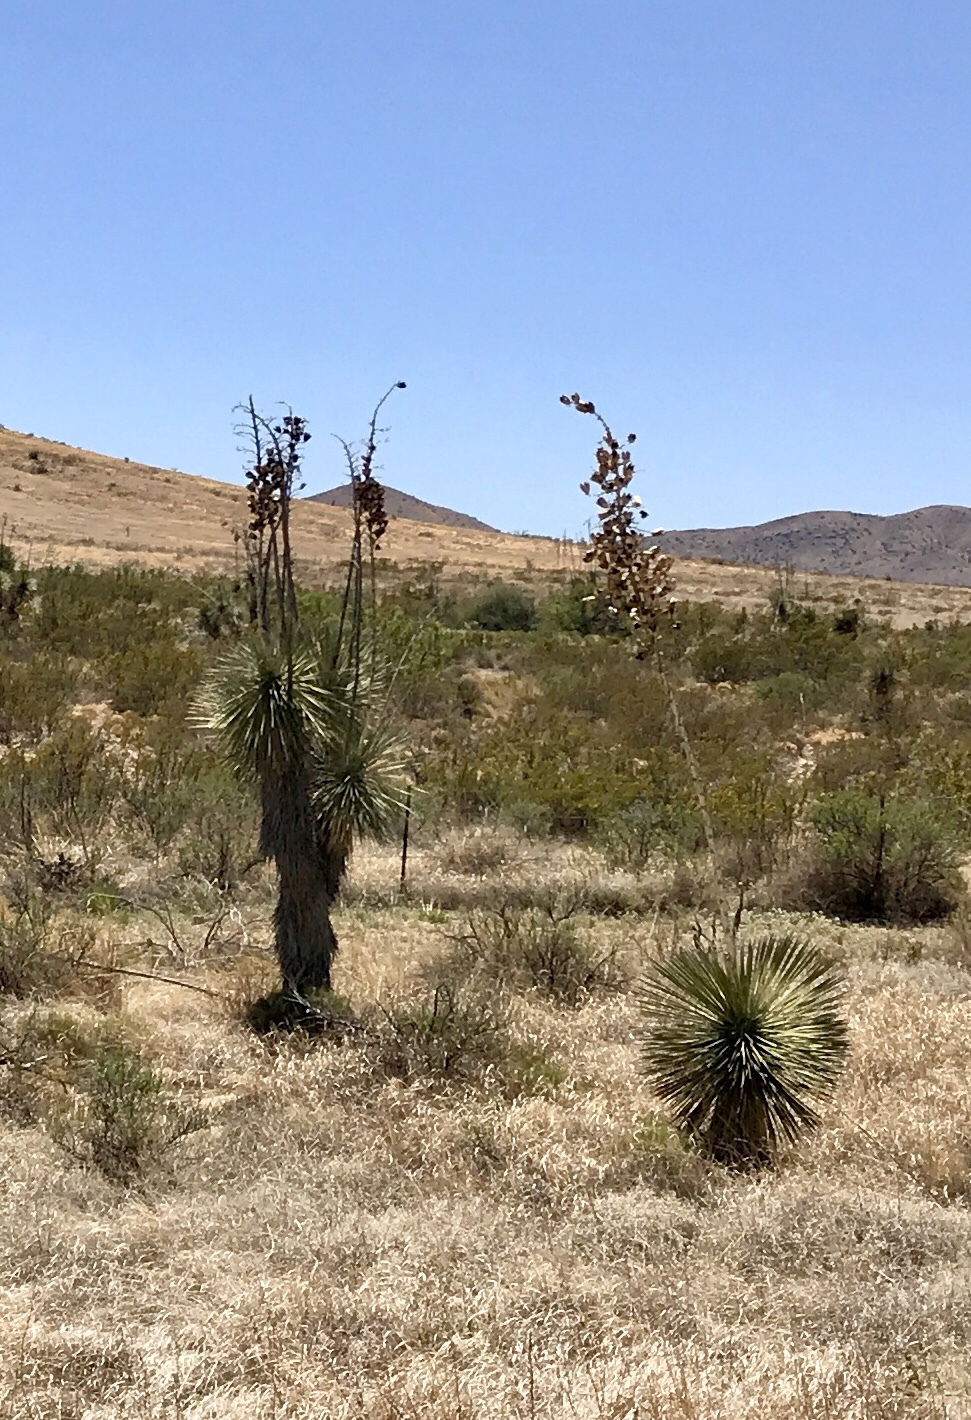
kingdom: Plantae
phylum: Tracheophyta
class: Liliopsida
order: Asparagales
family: Asparagaceae
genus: Yucca
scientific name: Yucca elata
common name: Palmella
